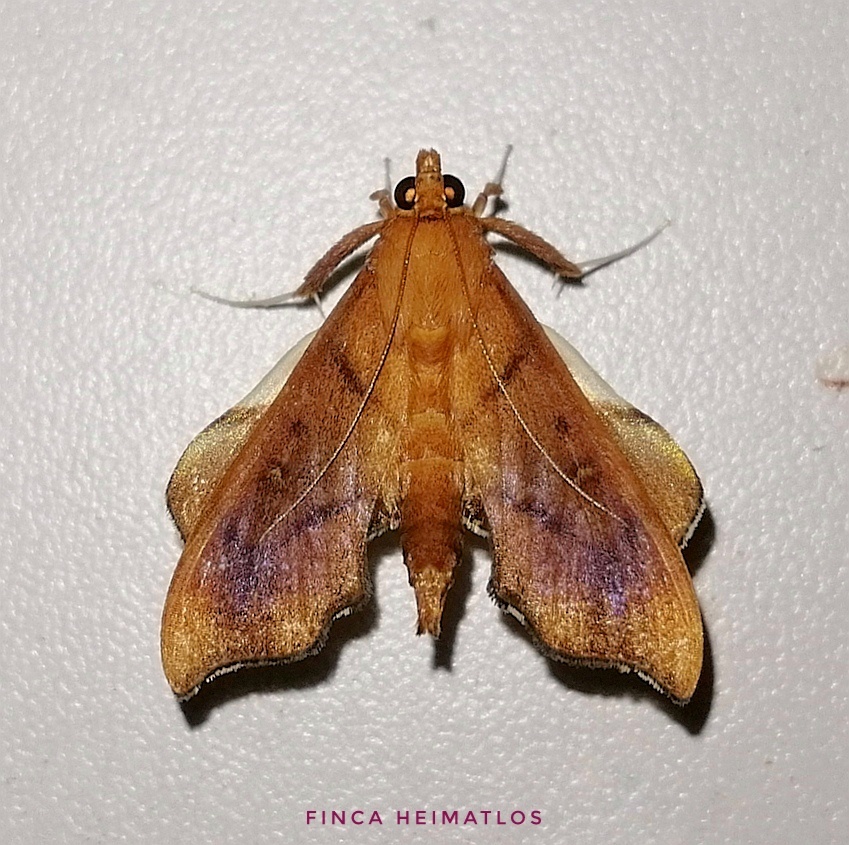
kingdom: Animalia
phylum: Arthropoda
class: Insecta
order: Lepidoptera
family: Crambidae
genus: Anarmodia
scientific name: Anarmodia nebulosalis
